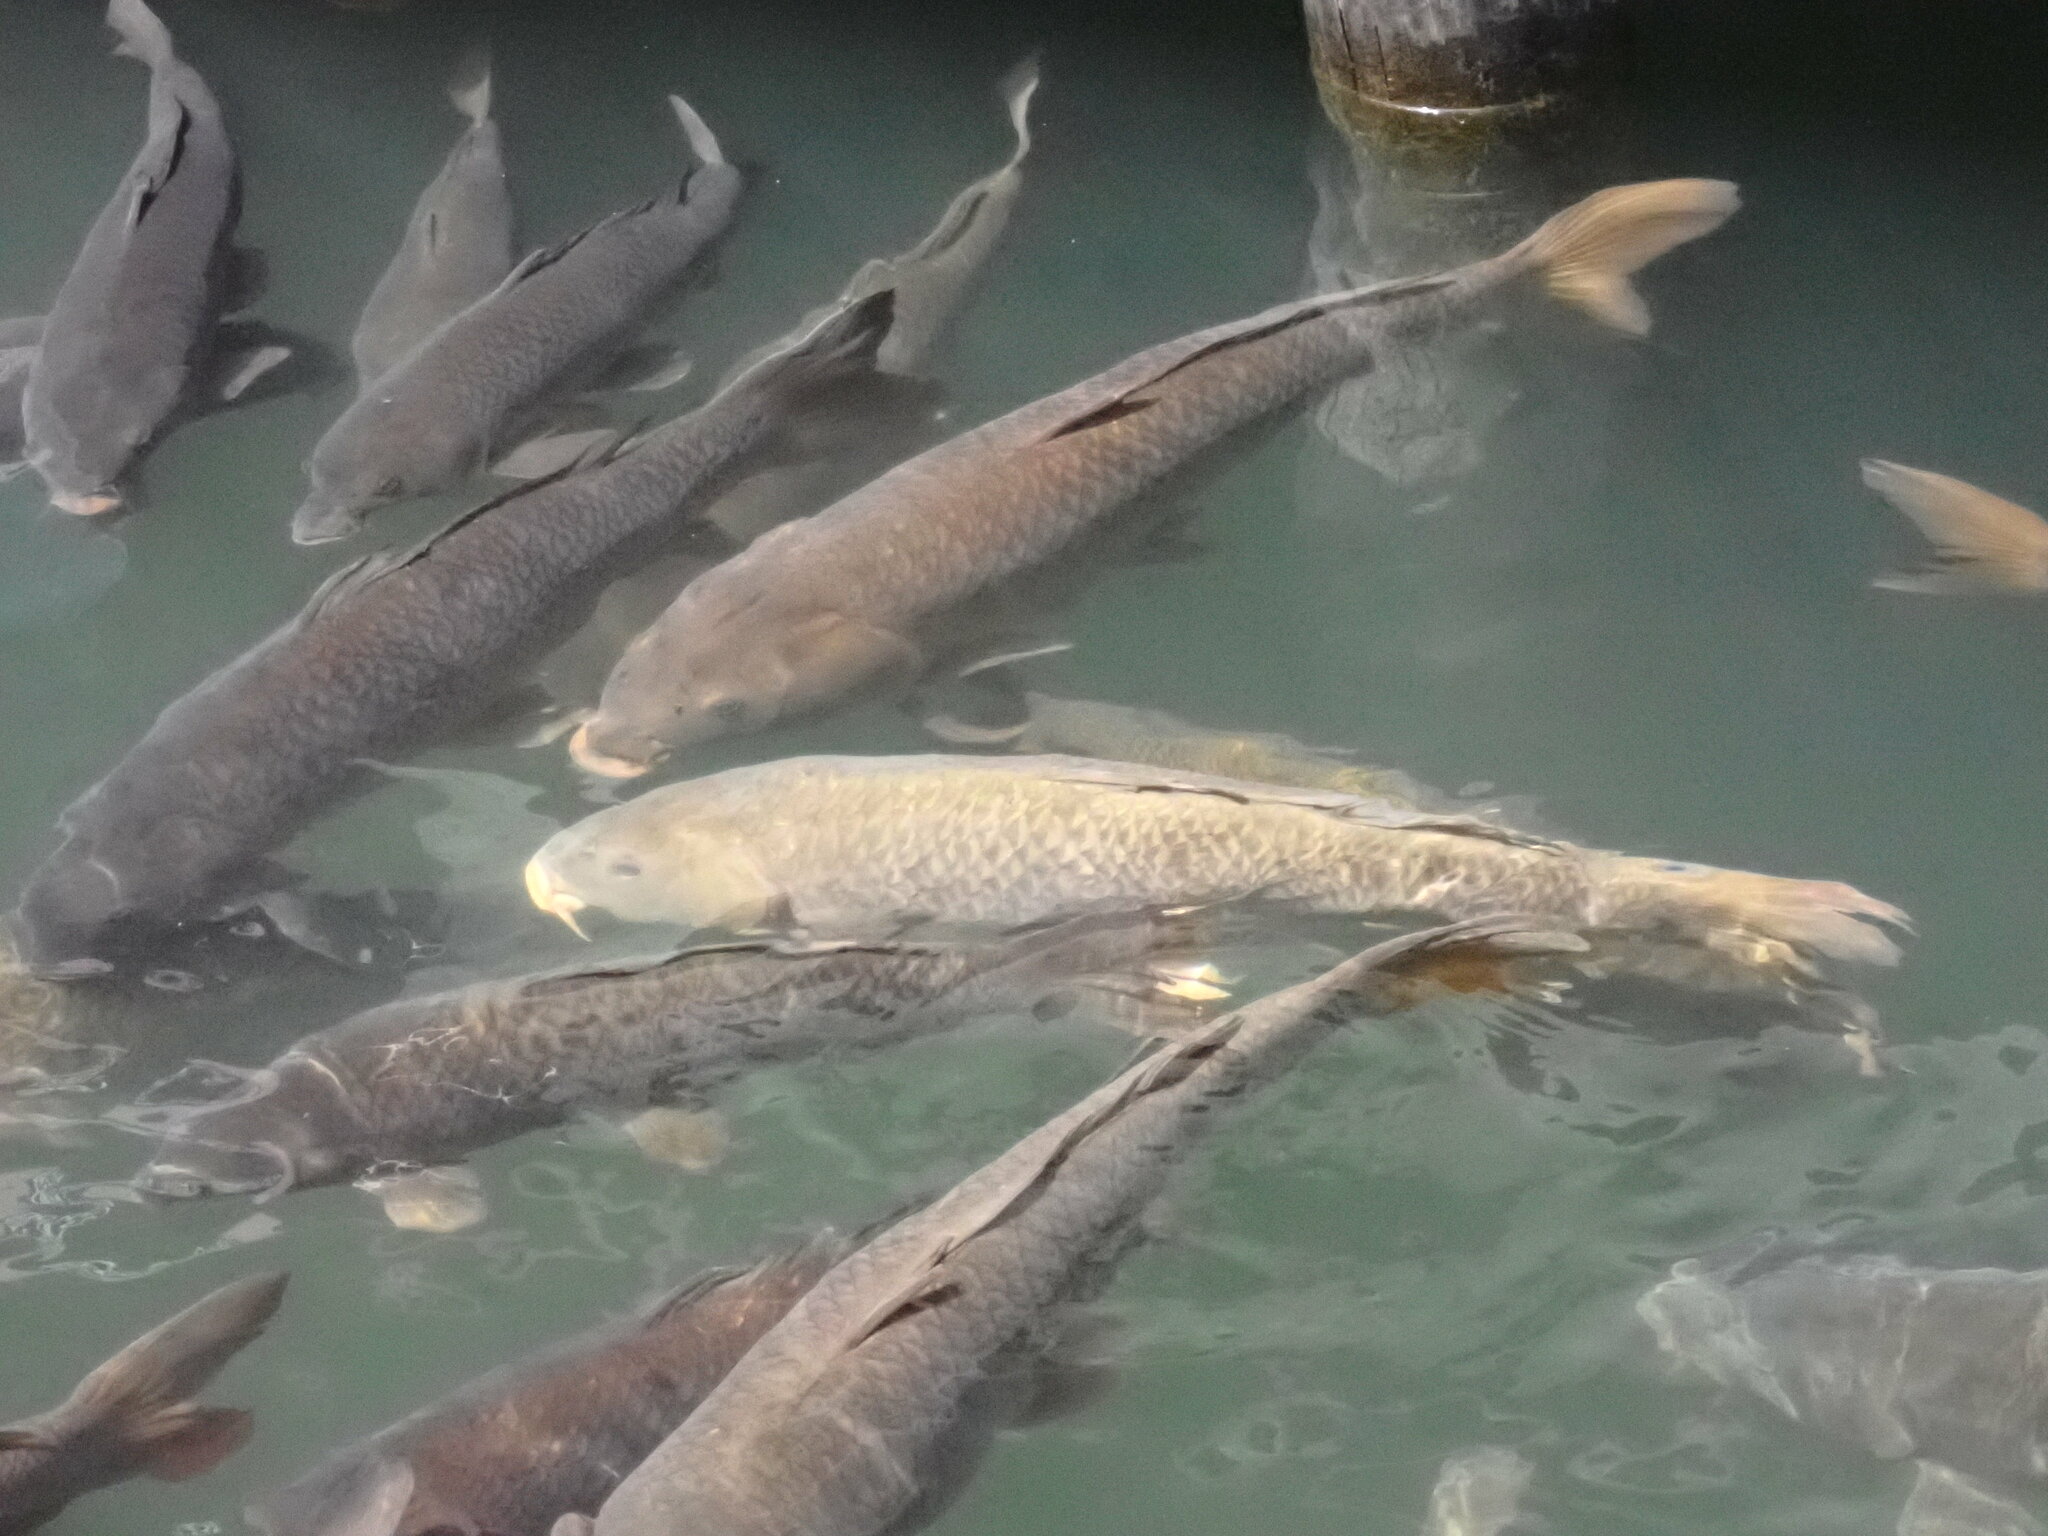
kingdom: Animalia
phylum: Chordata
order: Cypriniformes
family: Cyprinidae
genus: Cyprinus
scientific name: Cyprinus carpio
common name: Common carp
